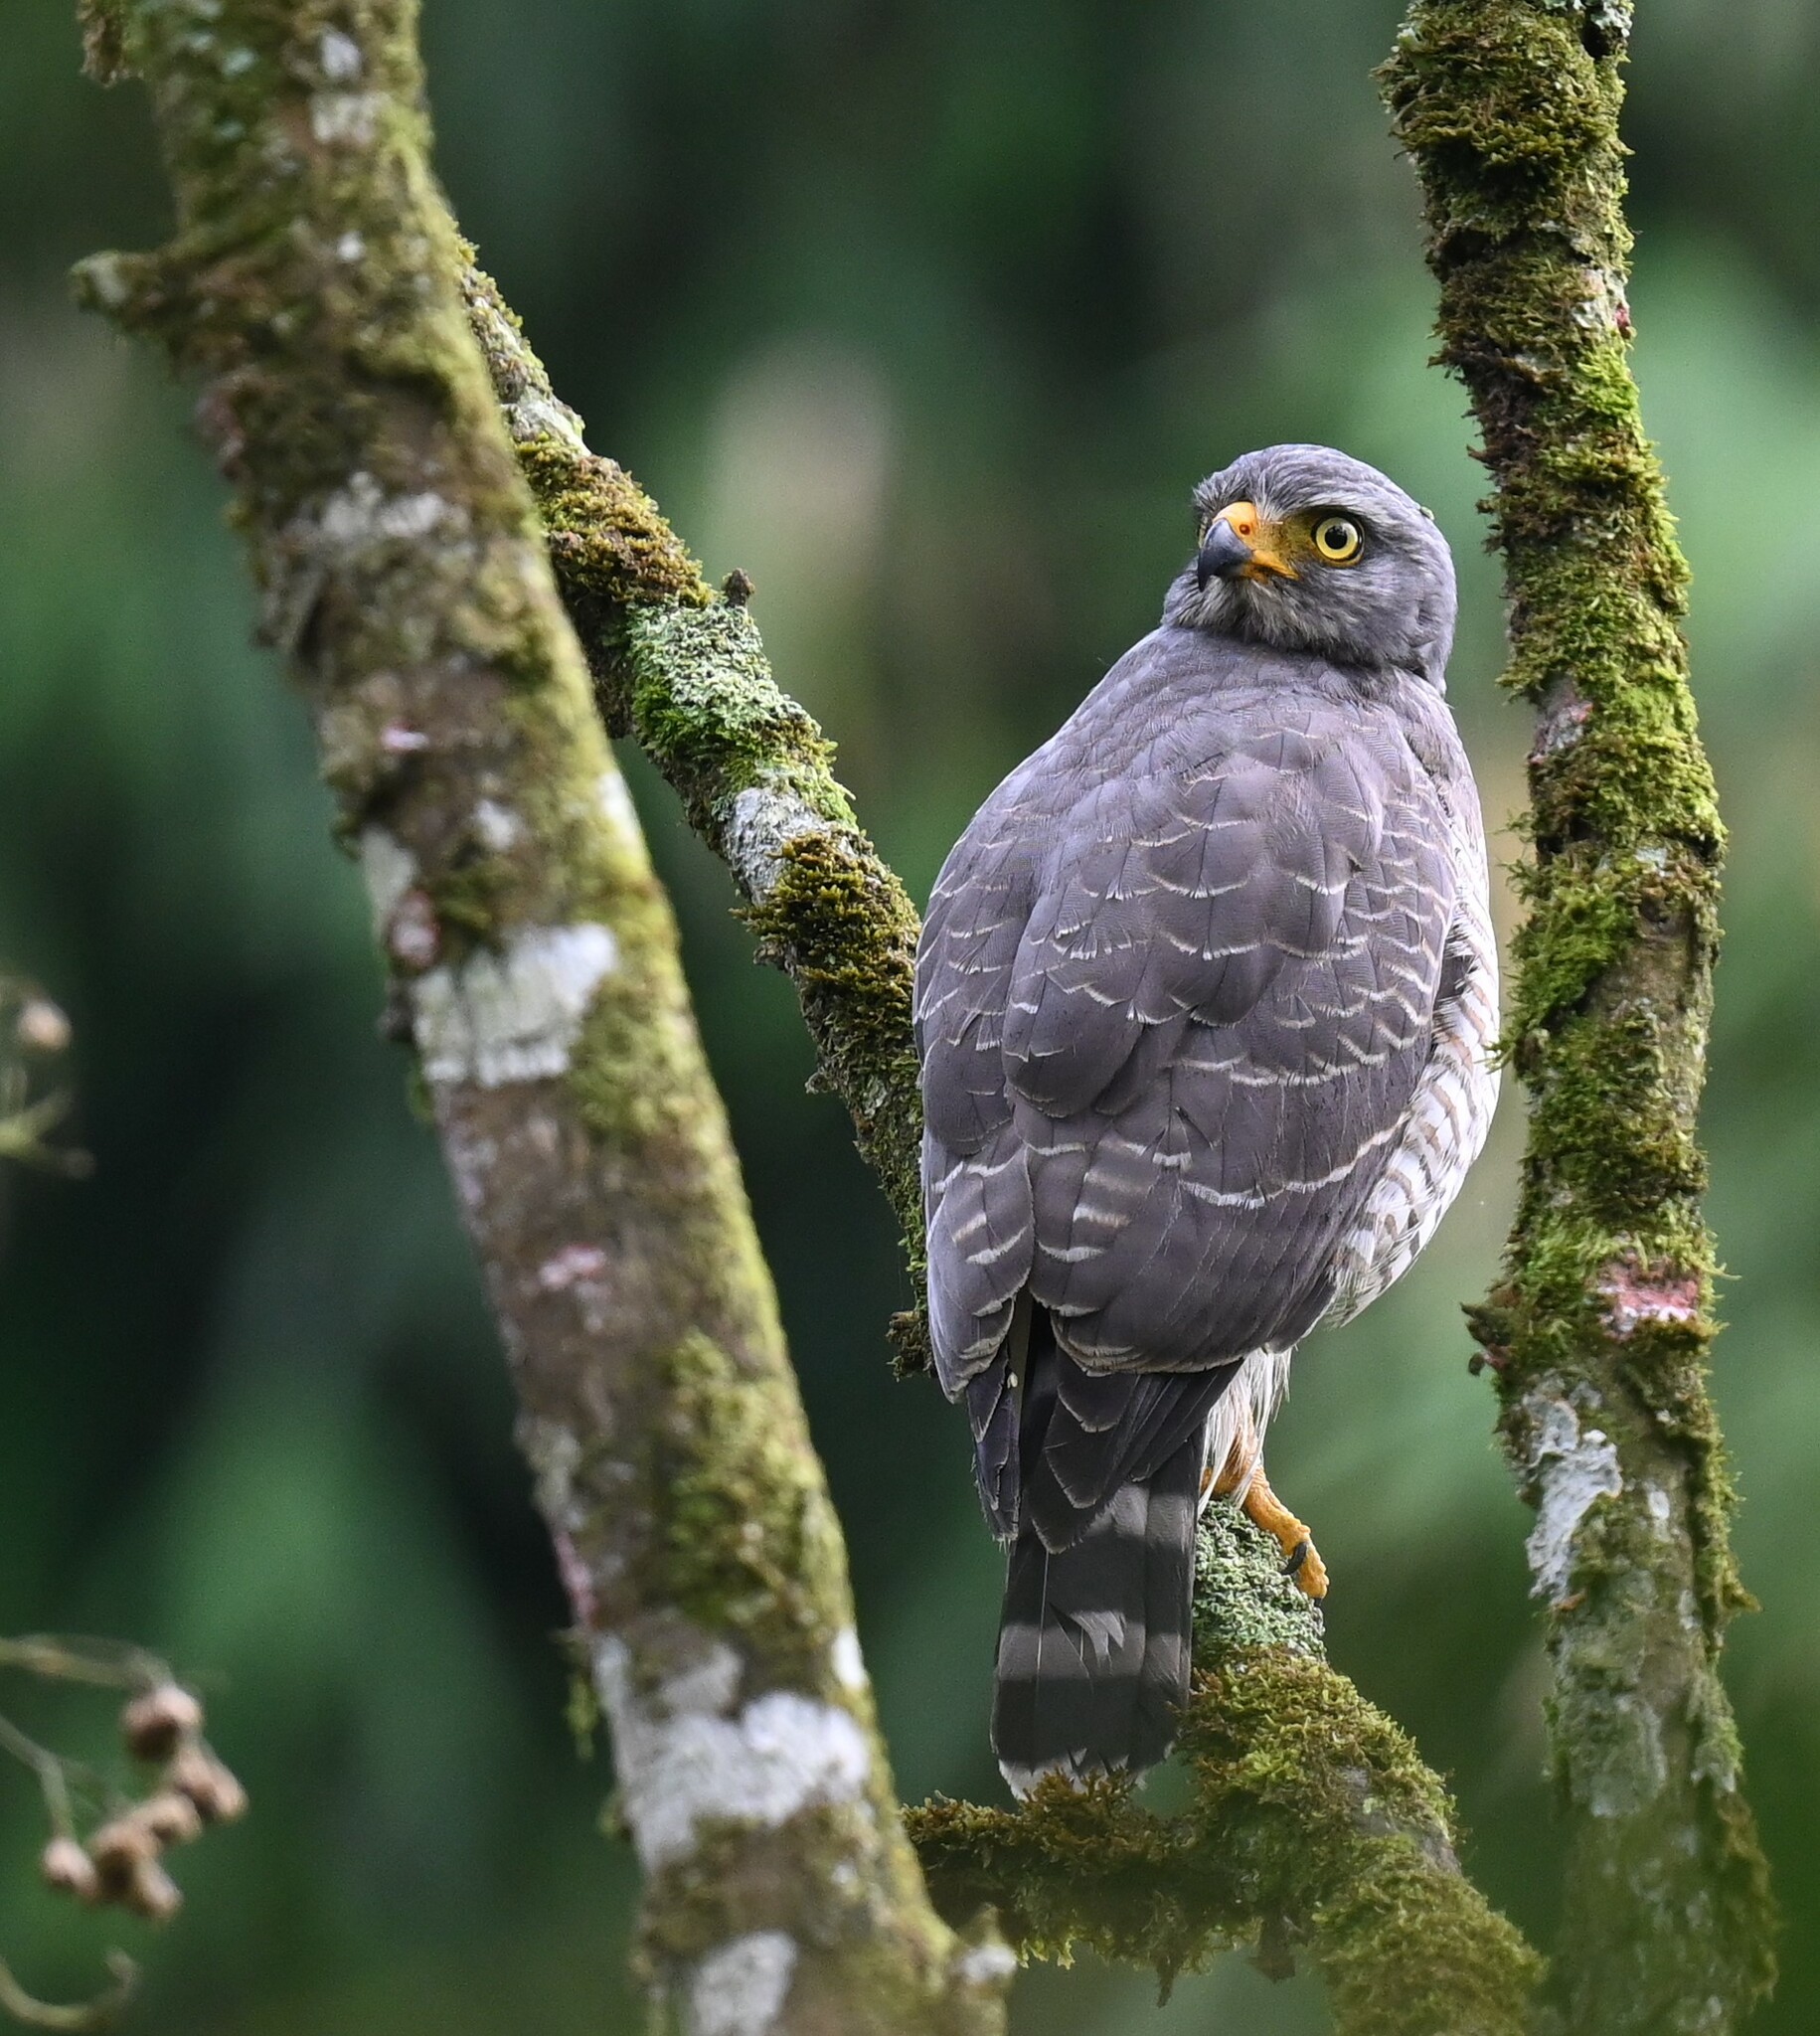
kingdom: Animalia
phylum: Chordata
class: Aves
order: Accipitriformes
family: Accipitridae
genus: Rupornis
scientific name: Rupornis magnirostris
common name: Roadside hawk
